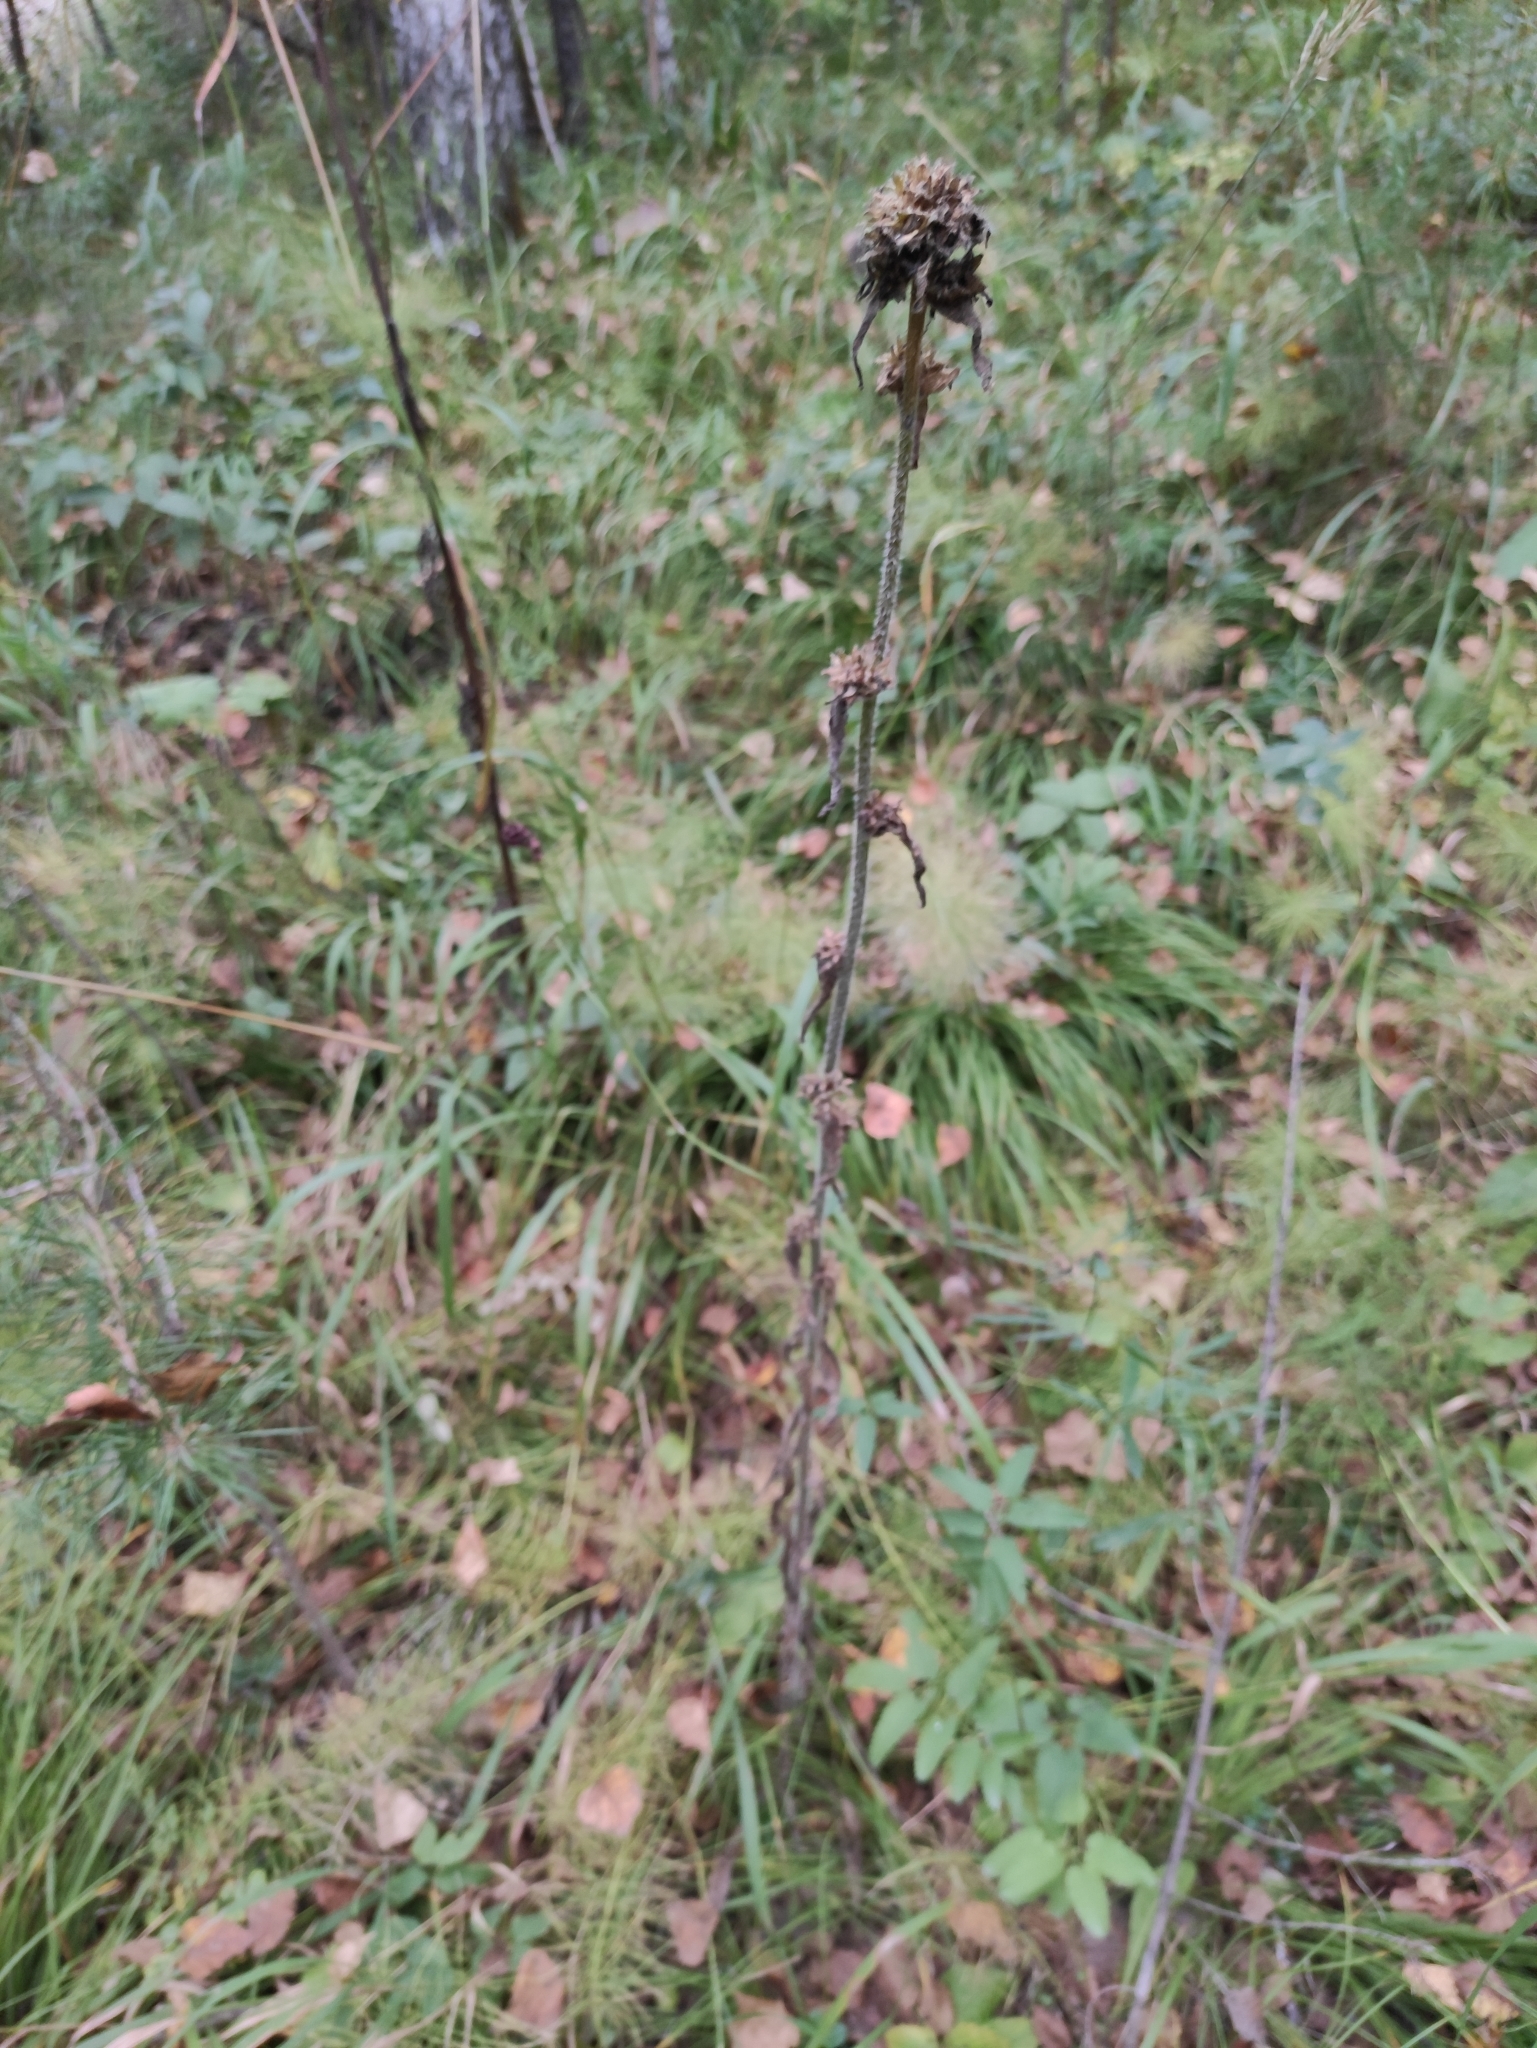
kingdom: Plantae
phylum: Tracheophyta
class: Magnoliopsida
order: Asterales
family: Campanulaceae
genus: Campanula
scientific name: Campanula cervicaria
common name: Bristly bellflower
